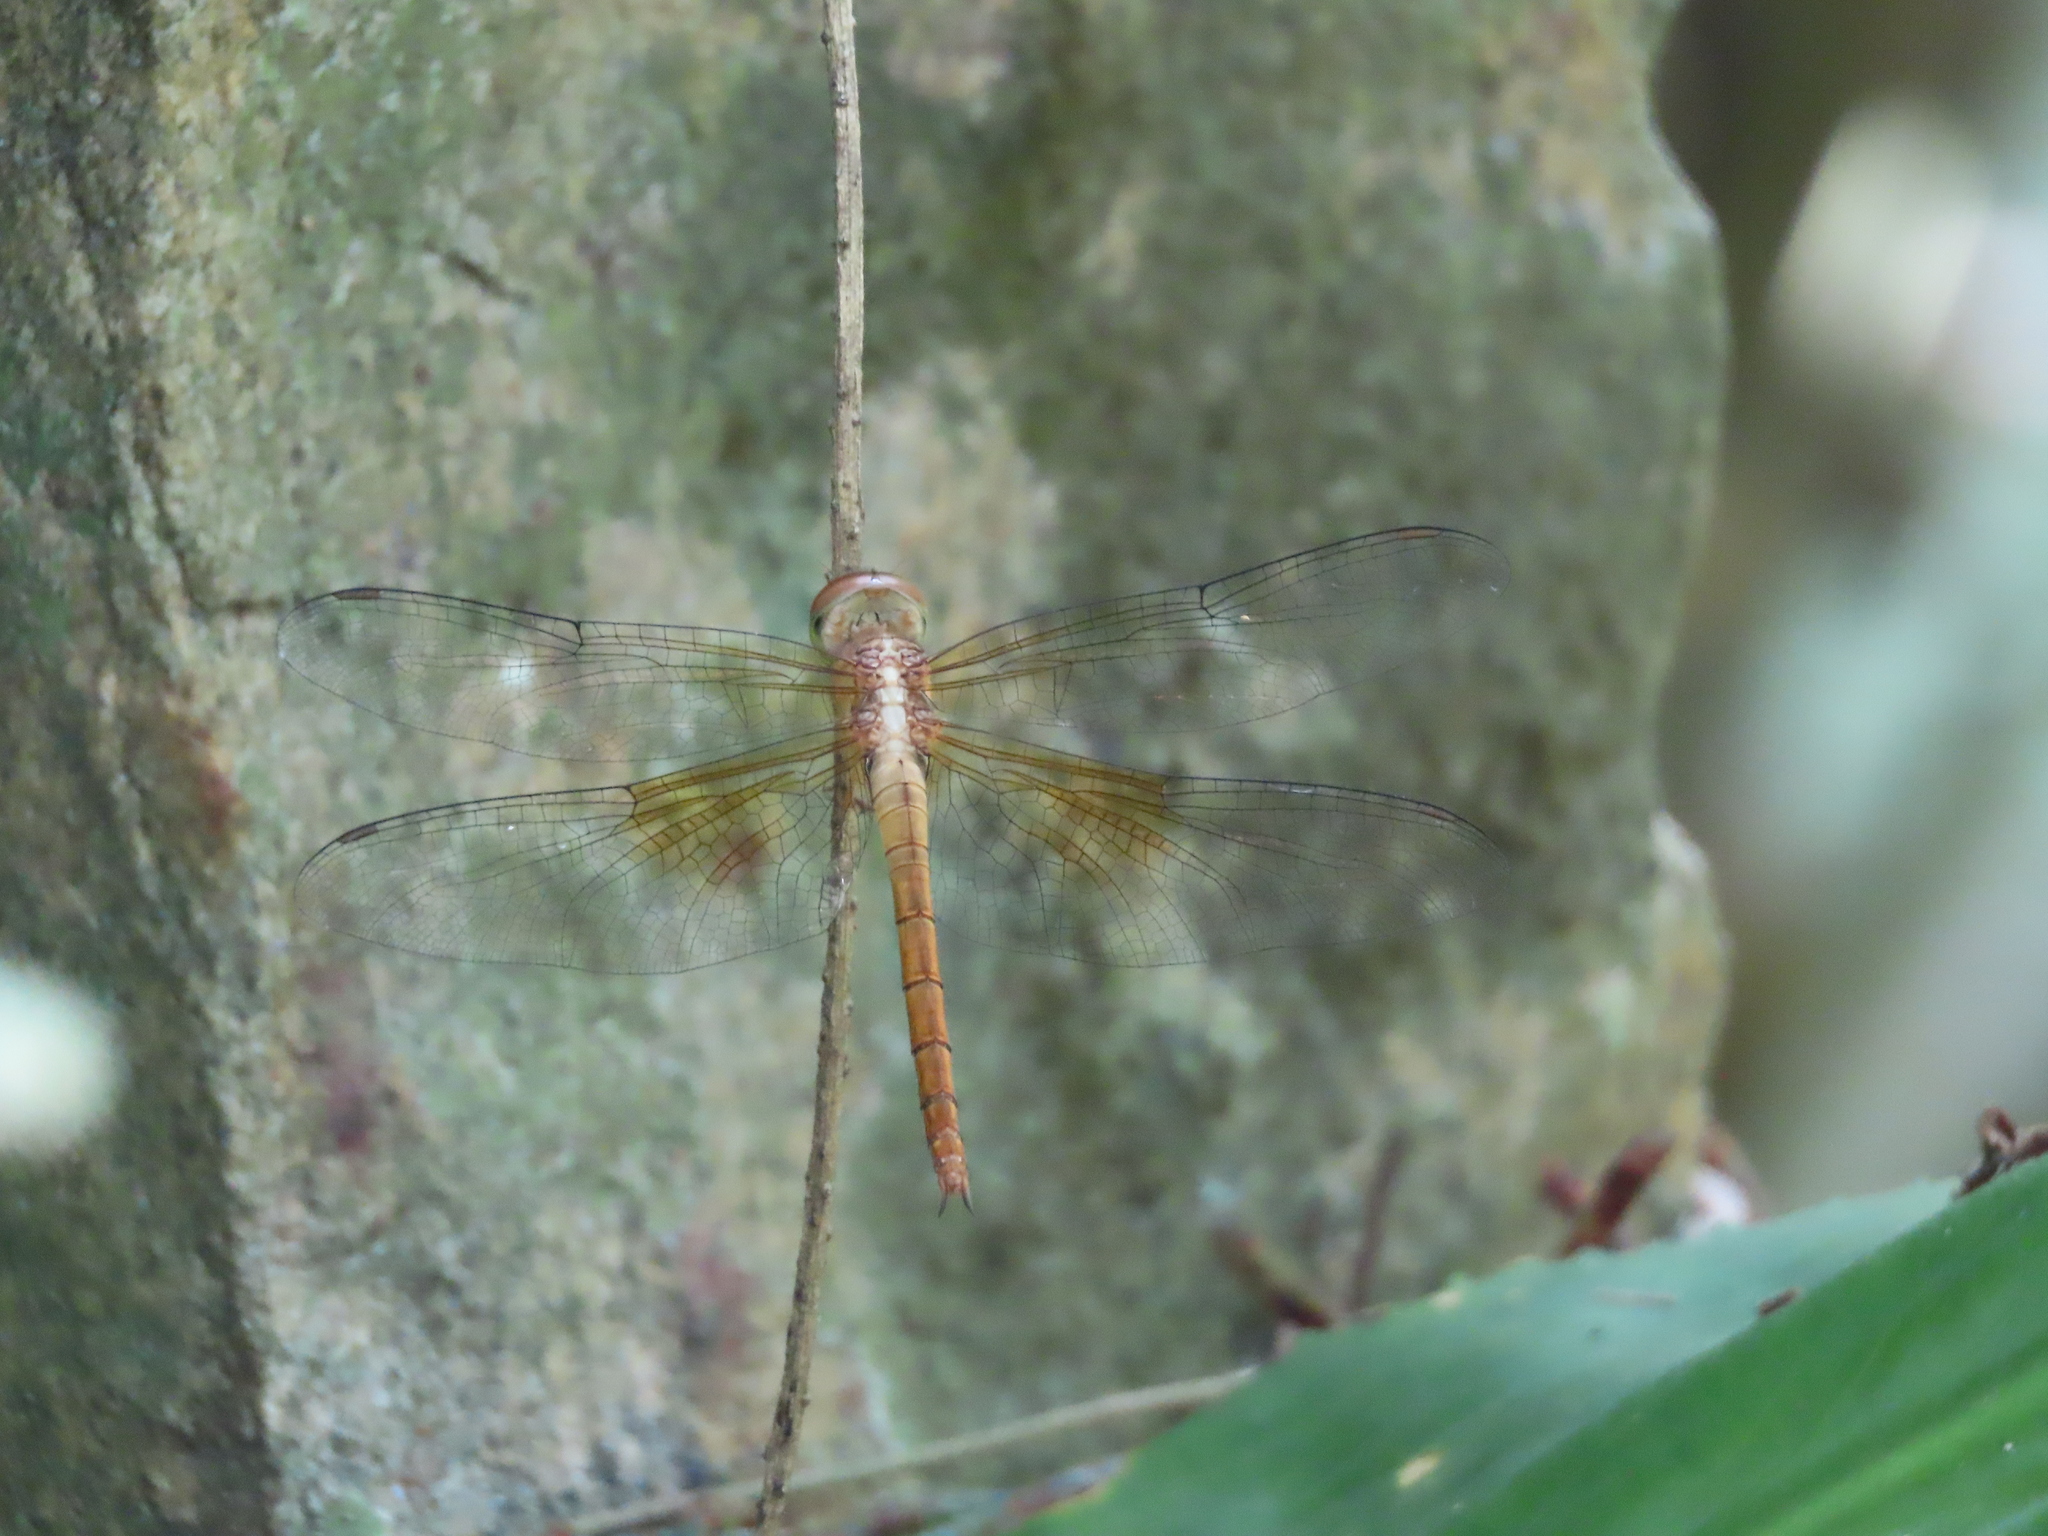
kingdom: Animalia
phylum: Arthropoda
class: Insecta
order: Odonata
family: Libellulidae
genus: Tholymis
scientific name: Tholymis tillarga
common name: Coral-tailed cloud wing
